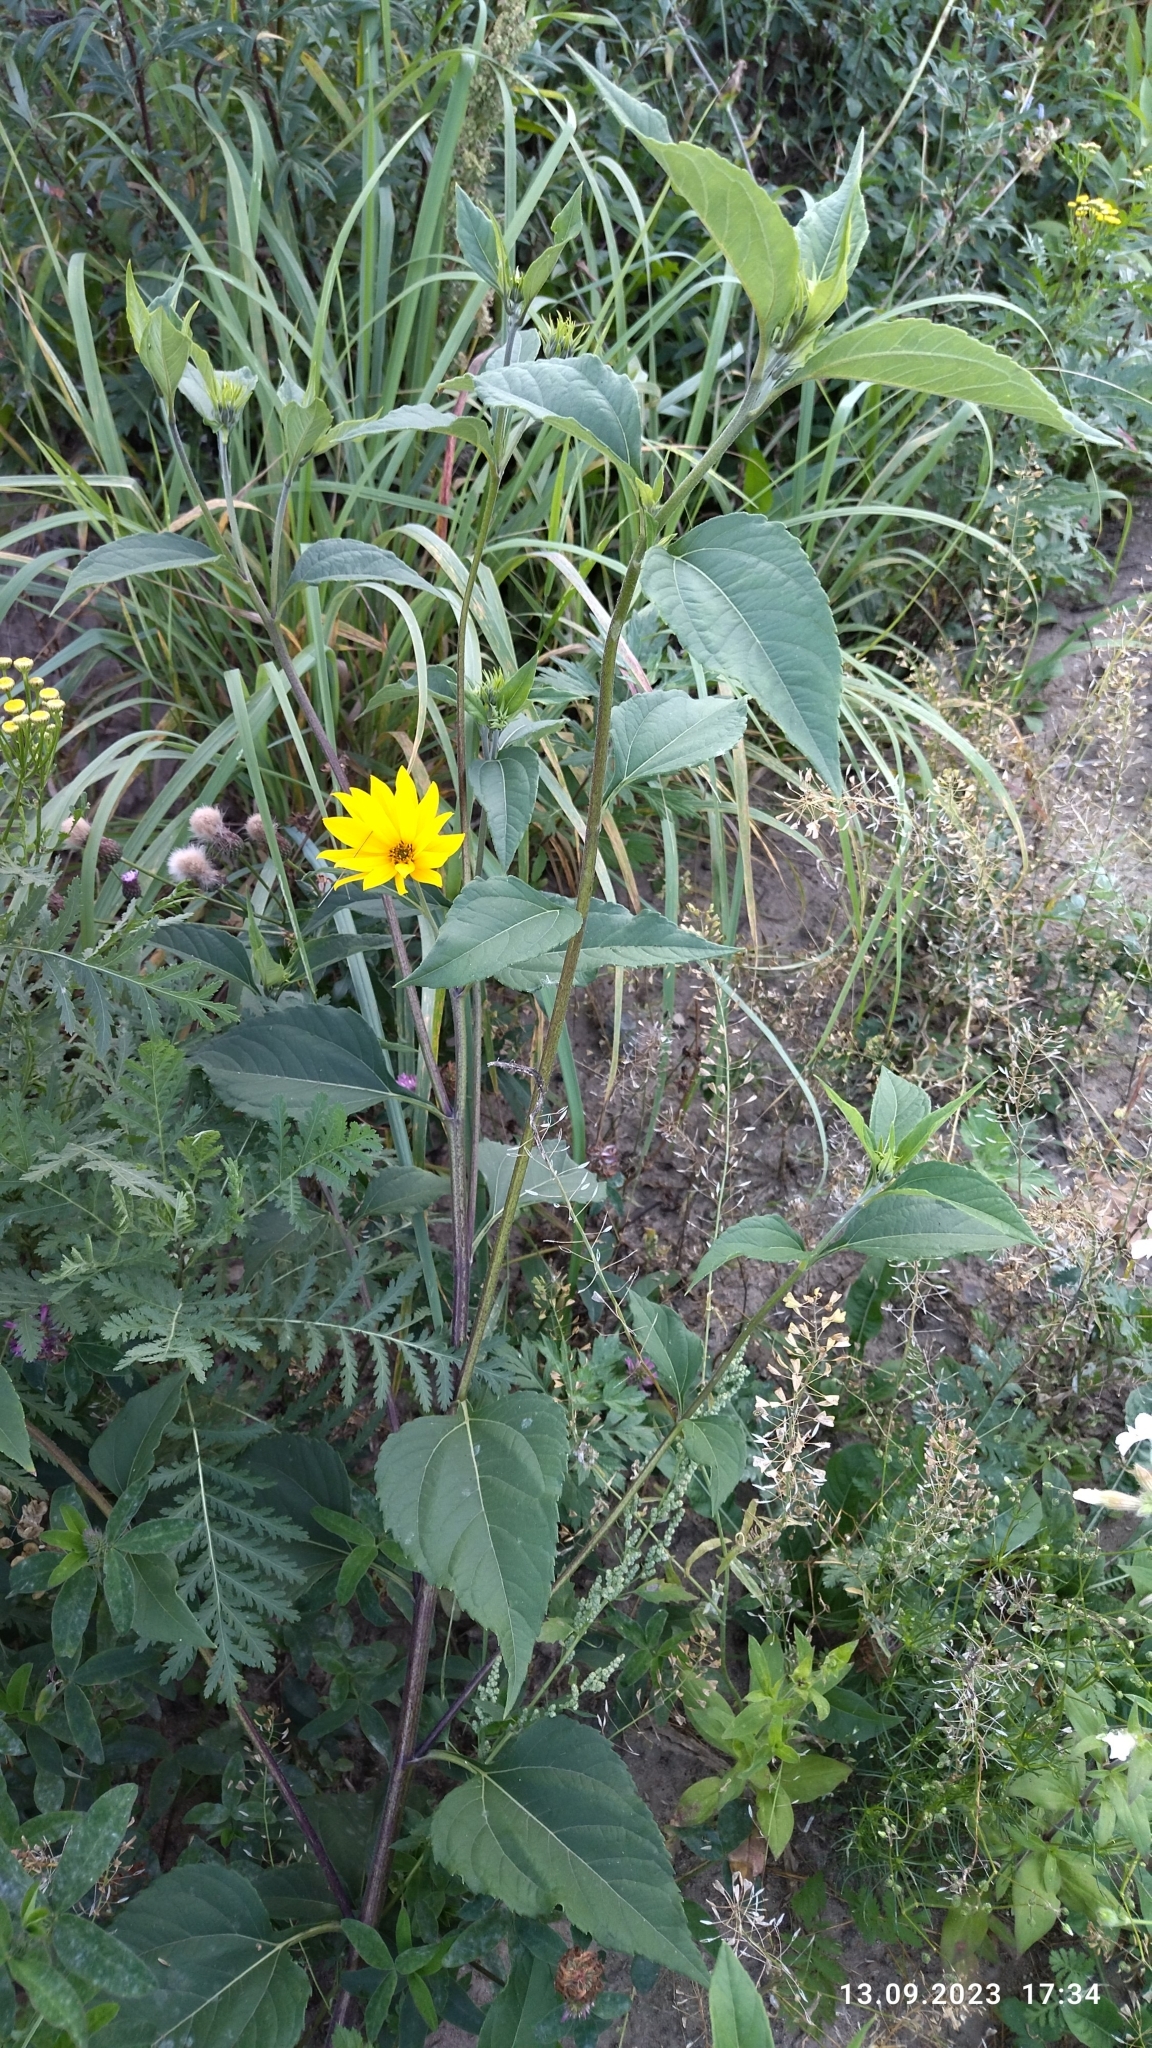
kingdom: Plantae
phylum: Tracheophyta
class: Magnoliopsida
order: Asterales
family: Asteraceae
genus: Helianthus
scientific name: Helianthus tuberosus
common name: Jerusalem artichoke
